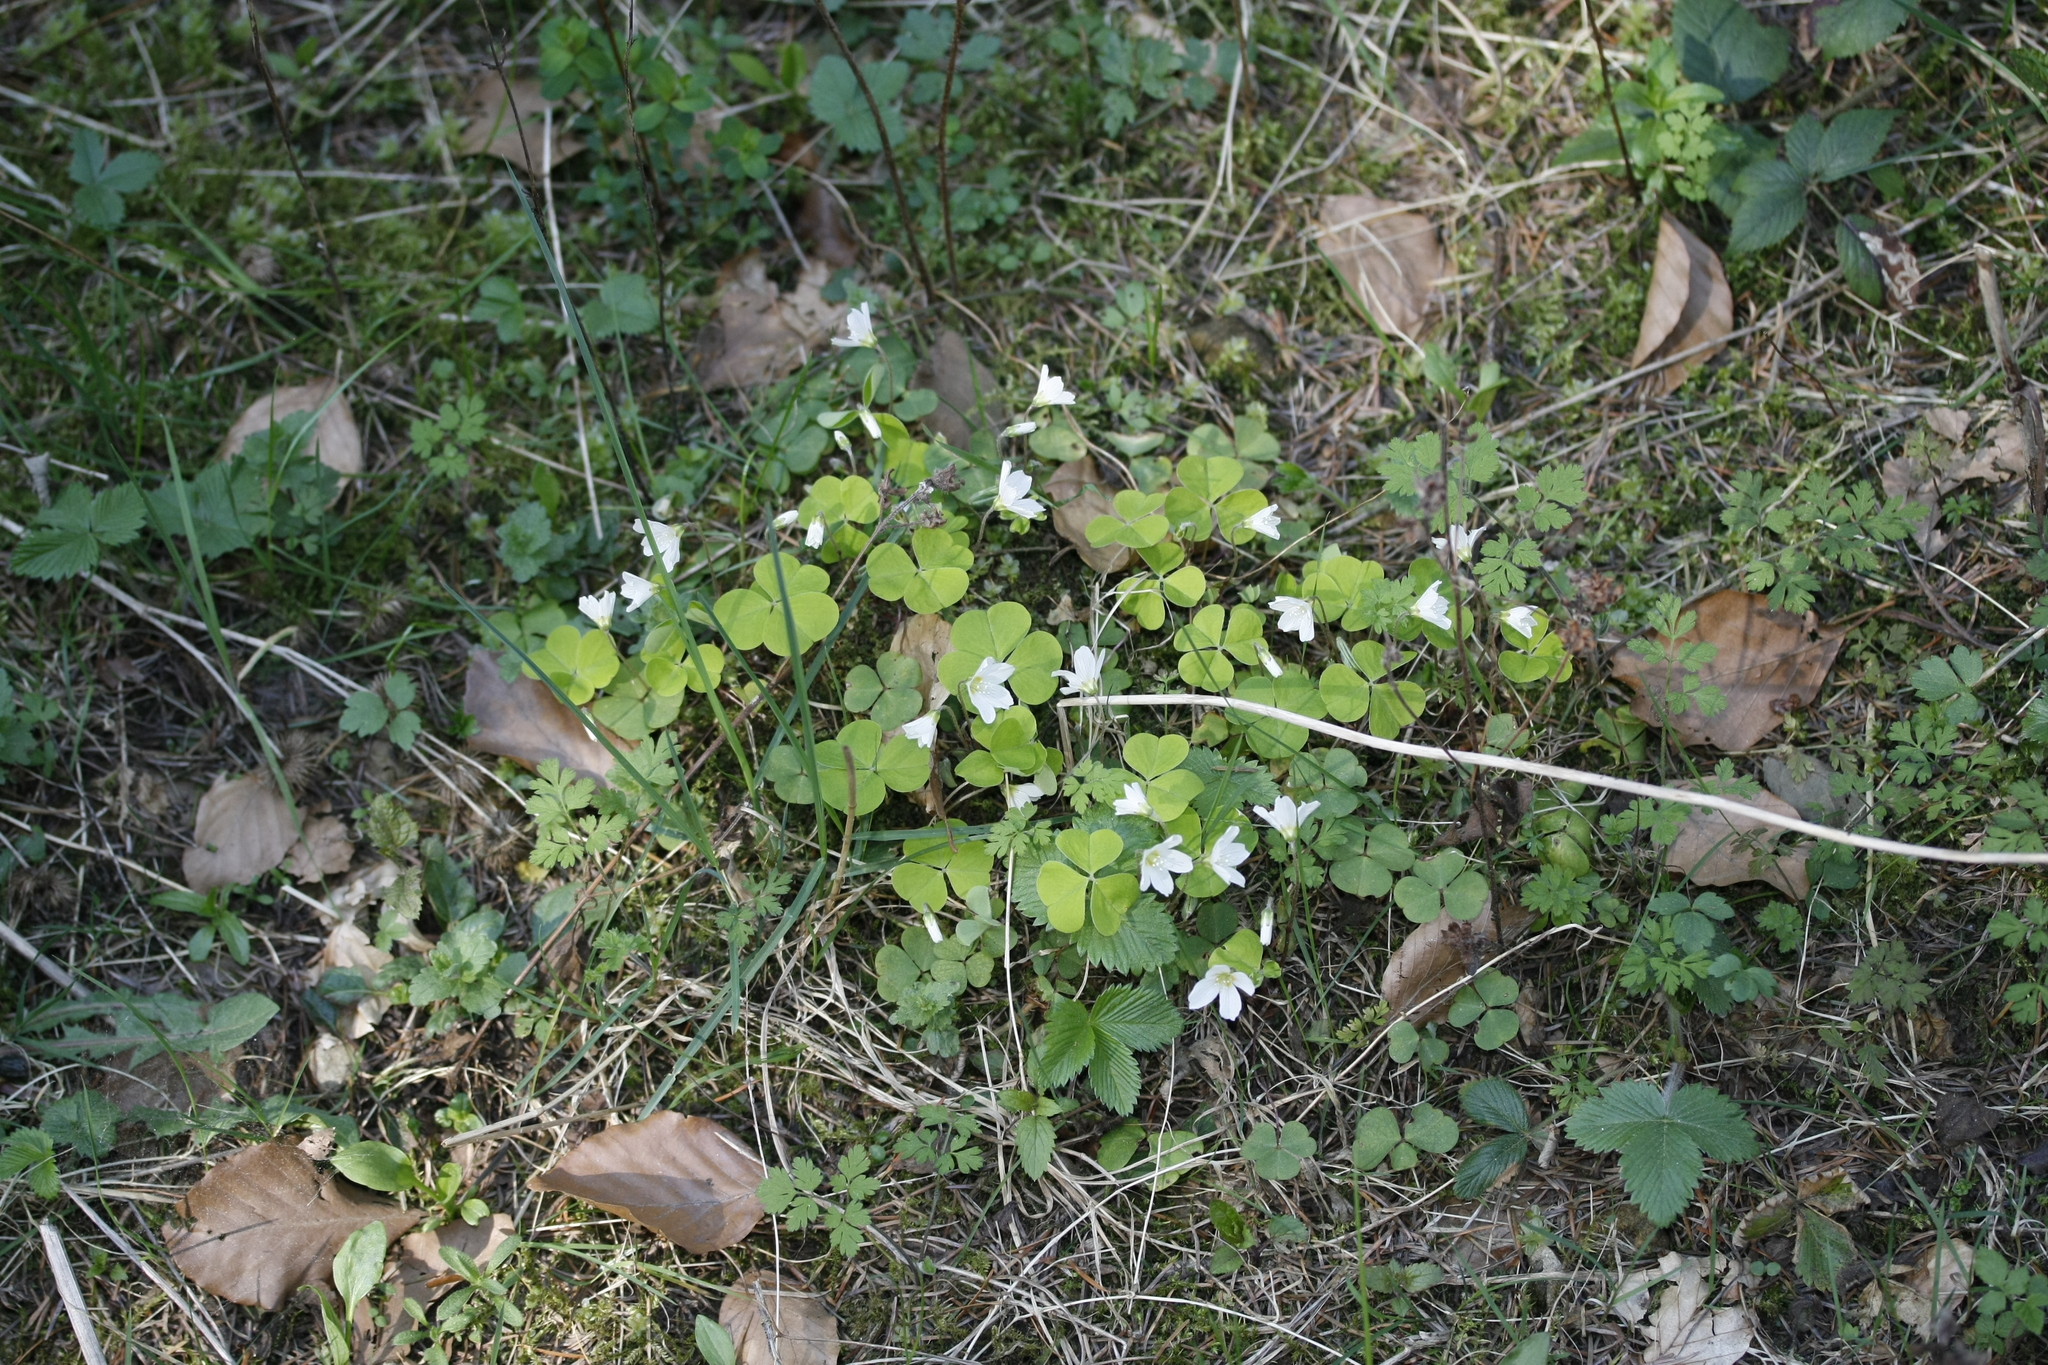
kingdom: Plantae
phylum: Tracheophyta
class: Magnoliopsida
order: Oxalidales
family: Oxalidaceae
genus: Oxalis
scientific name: Oxalis acetosella
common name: Wood-sorrel
